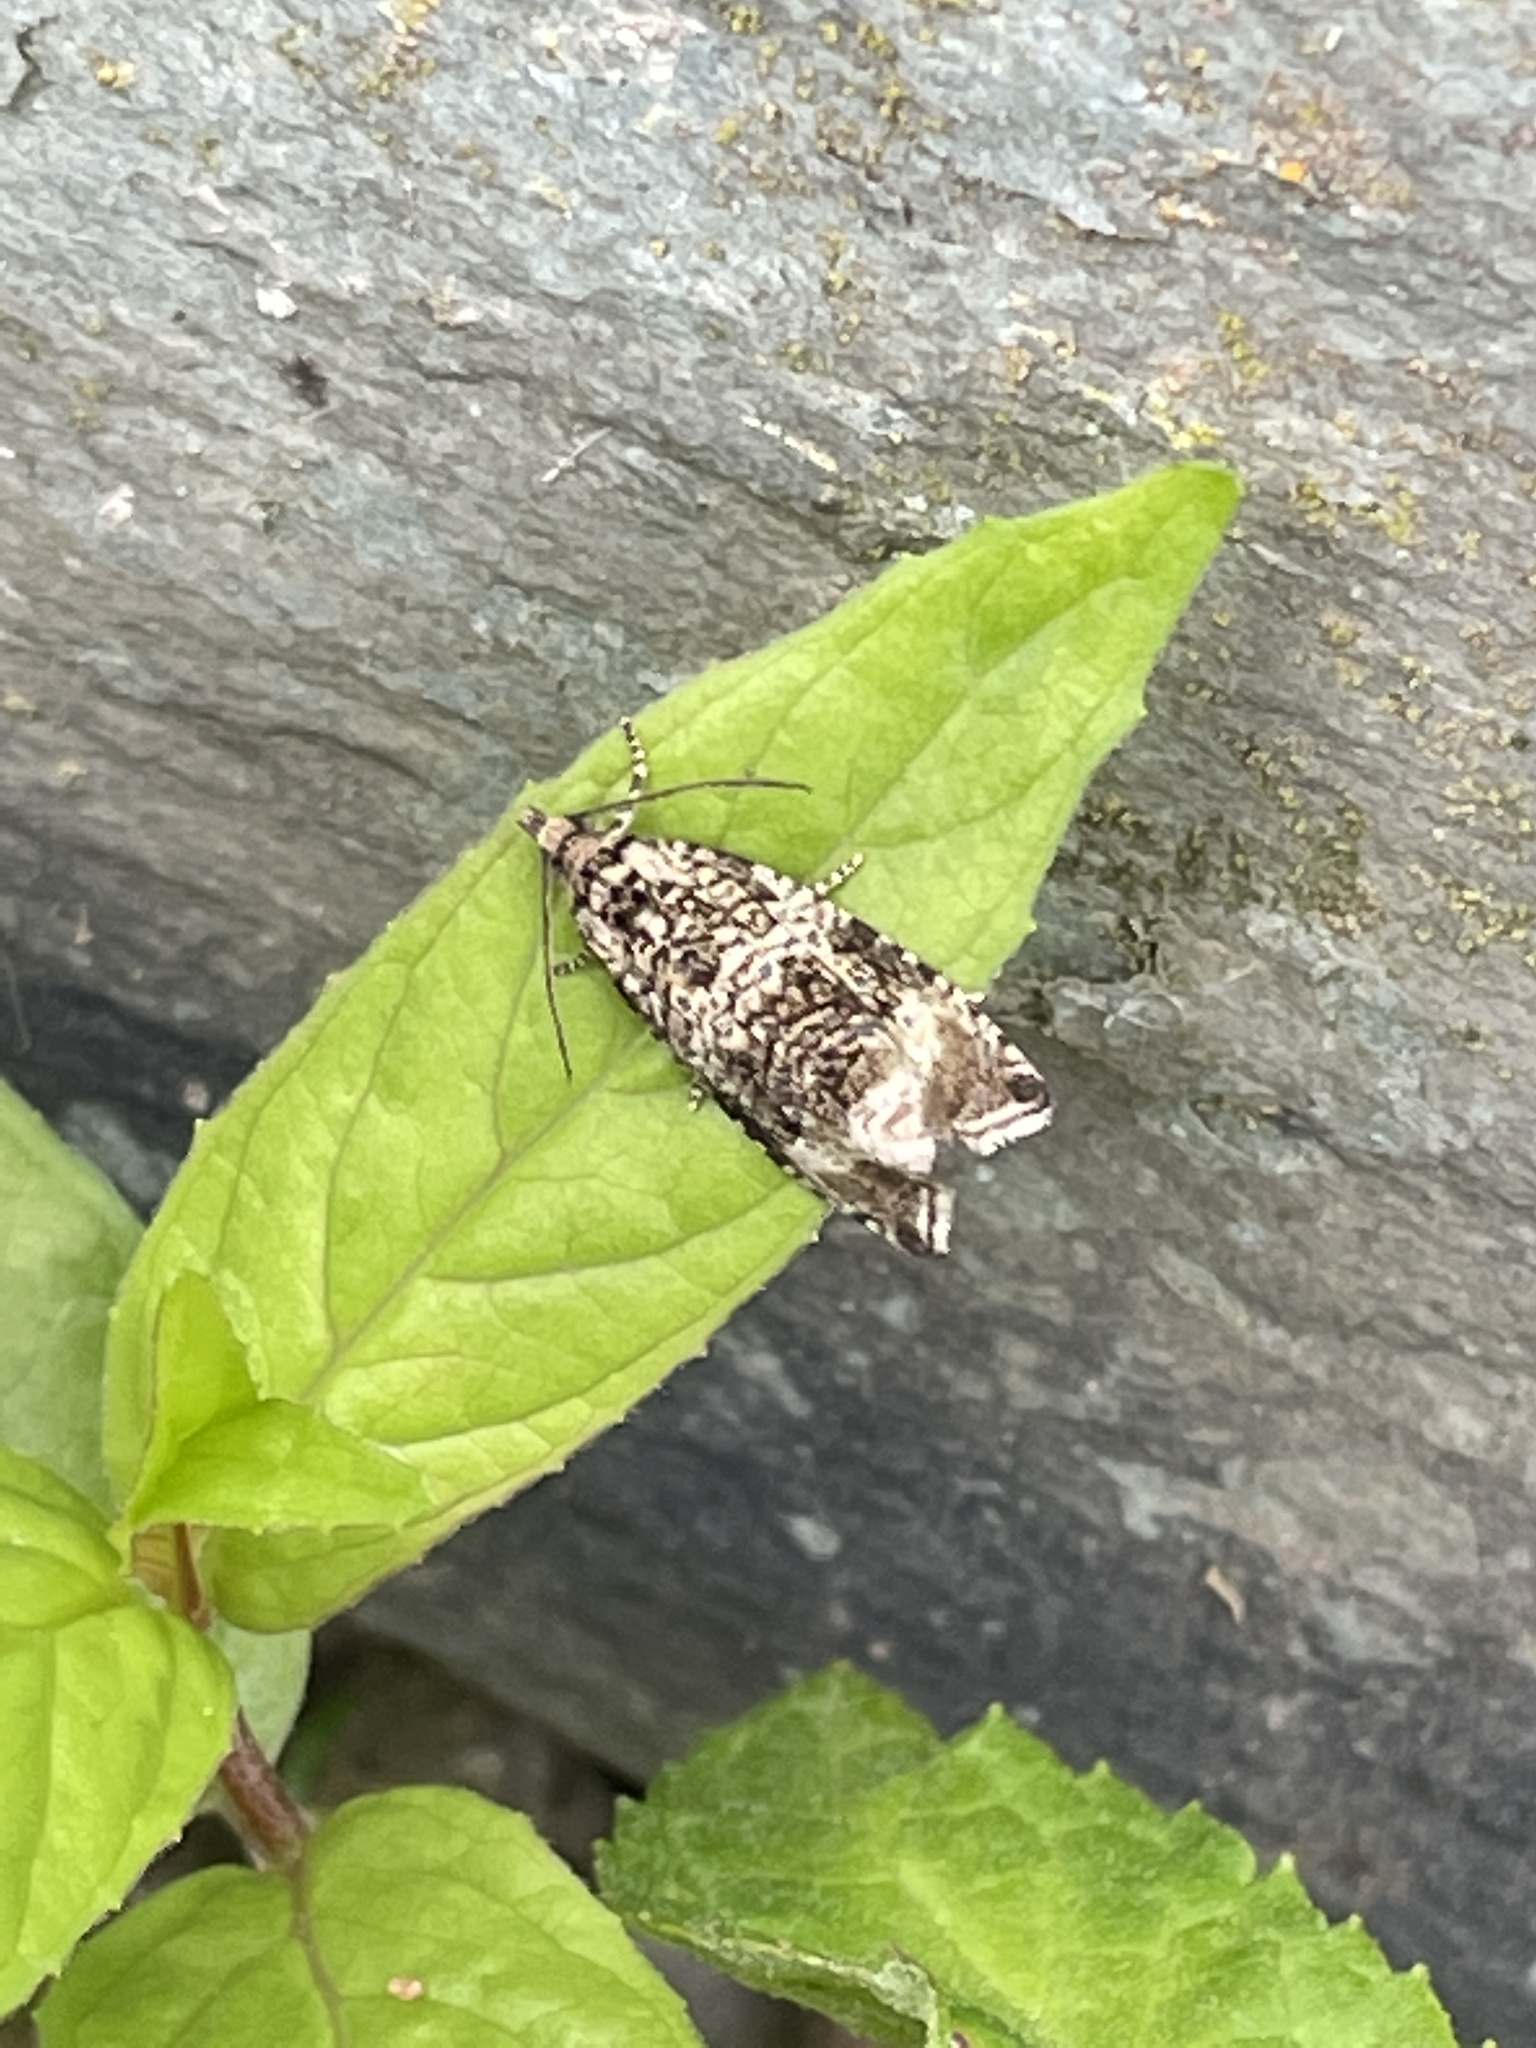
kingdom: Animalia
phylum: Arthropoda
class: Insecta
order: Lepidoptera
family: Tortricidae
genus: Syricoris
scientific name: Syricoris lacunana
